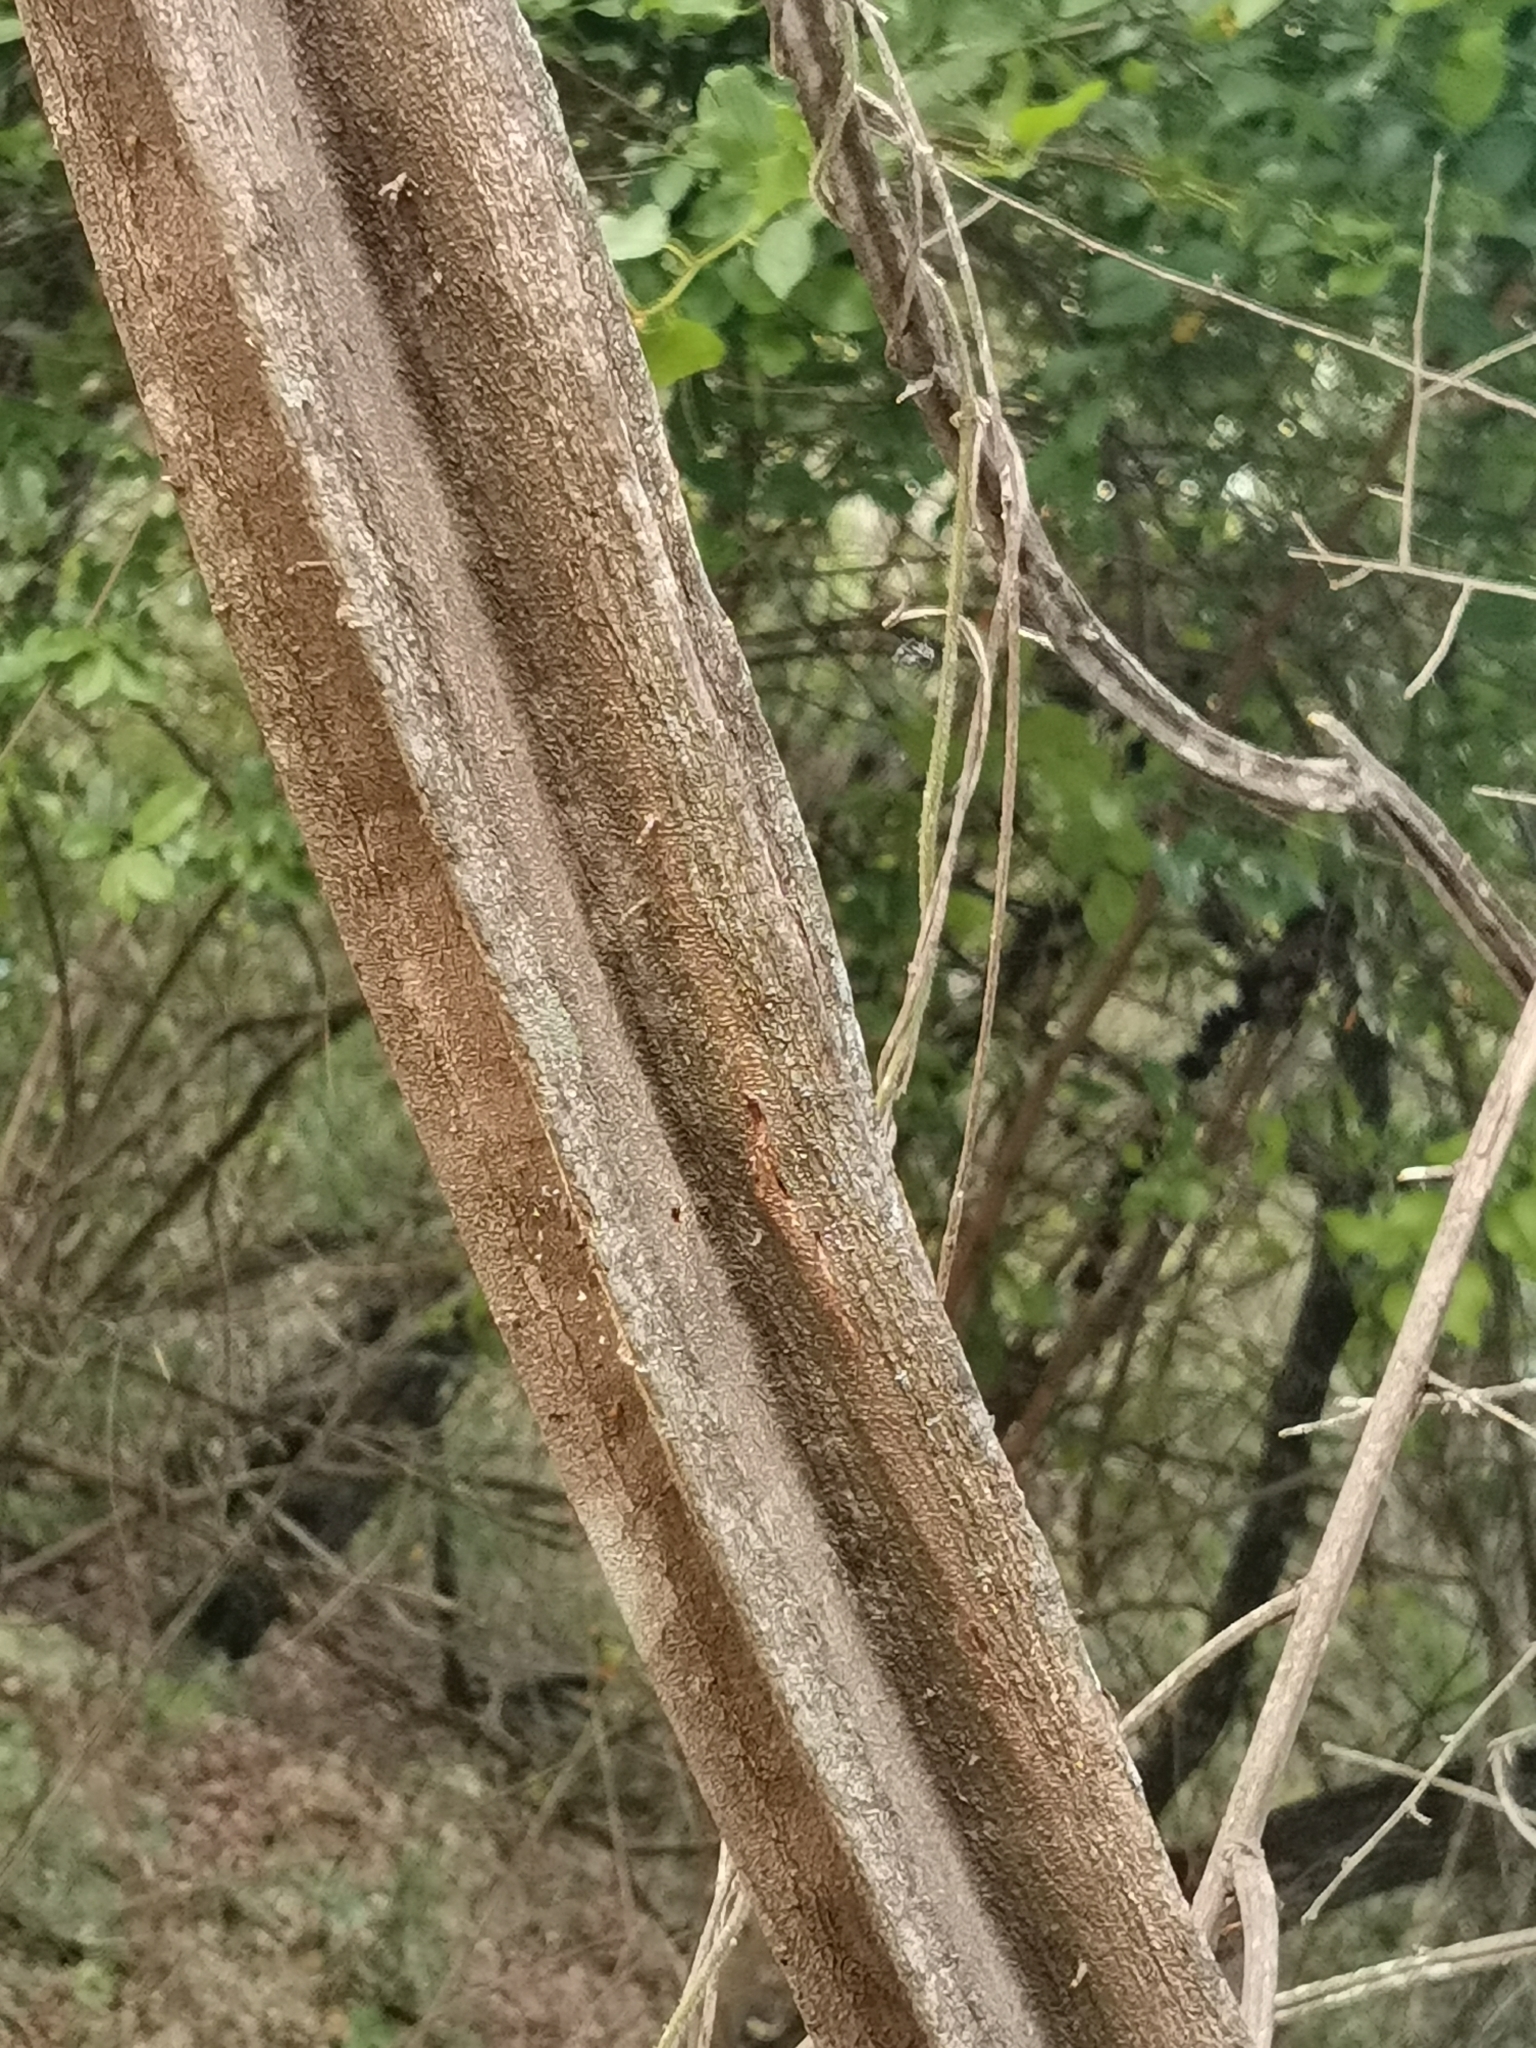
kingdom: Plantae
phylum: Tracheophyta
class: Magnoliopsida
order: Malvales
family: Malvaceae
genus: Grewia
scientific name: Grewia flavescens
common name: Sandpaper raisin
